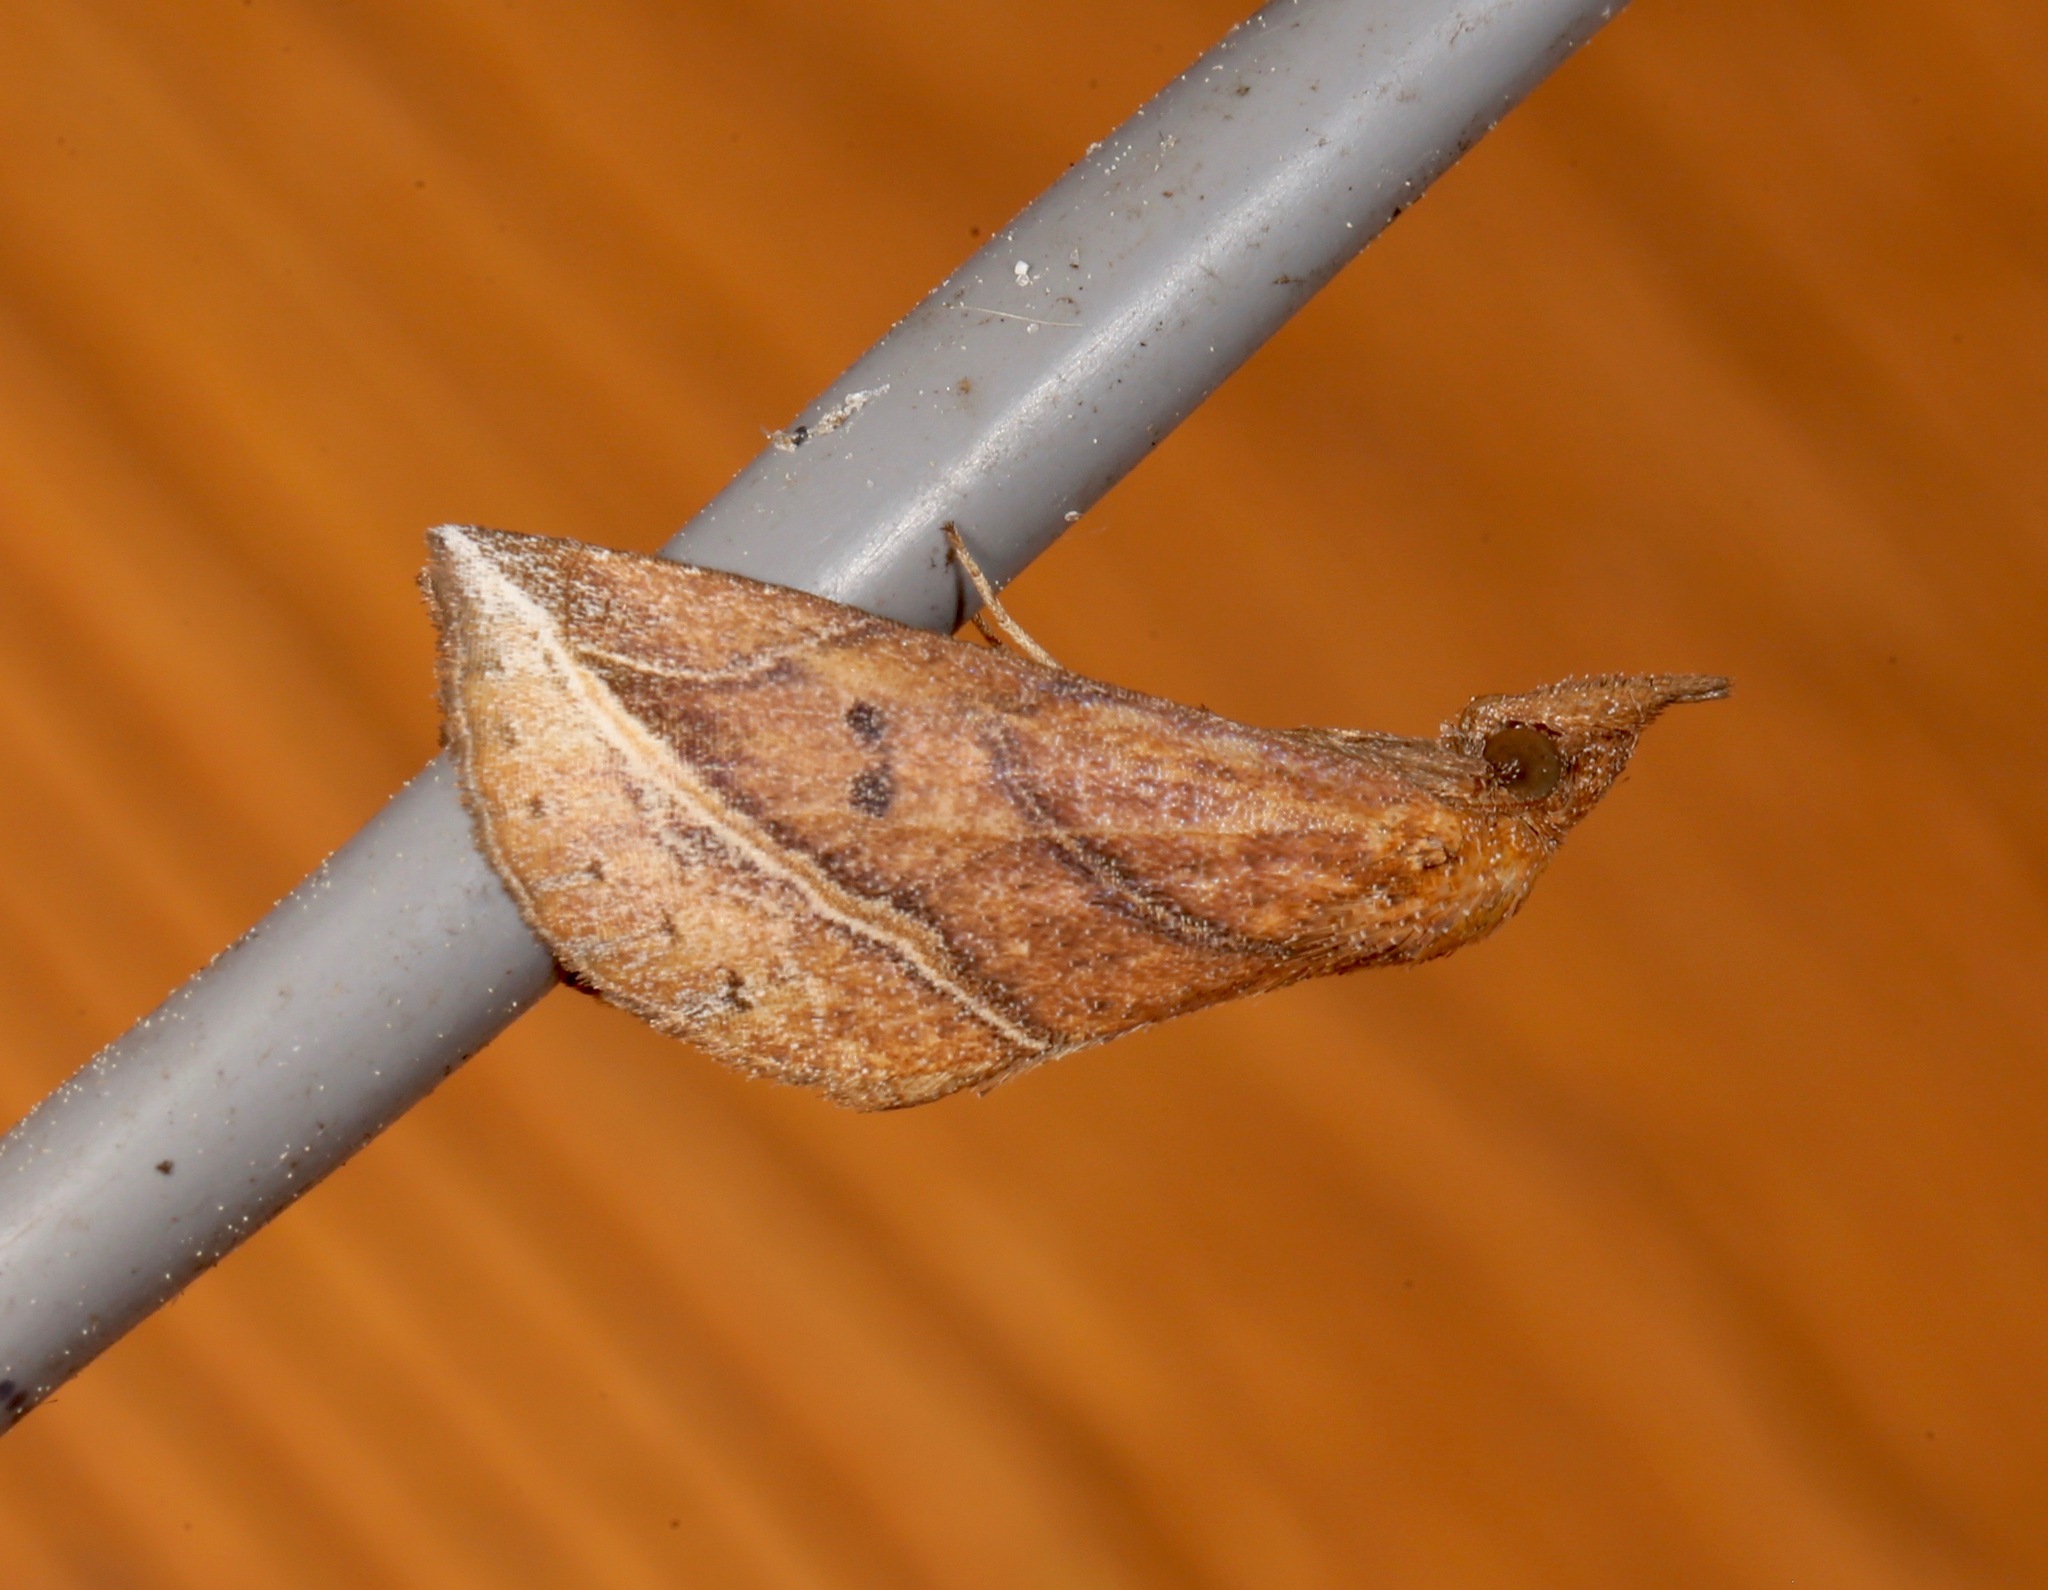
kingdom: Animalia
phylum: Arthropoda
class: Insecta
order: Lepidoptera
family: Erebidae
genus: Phyprosopus
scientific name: Phyprosopus callitrichoides
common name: Curved-lined owlet
